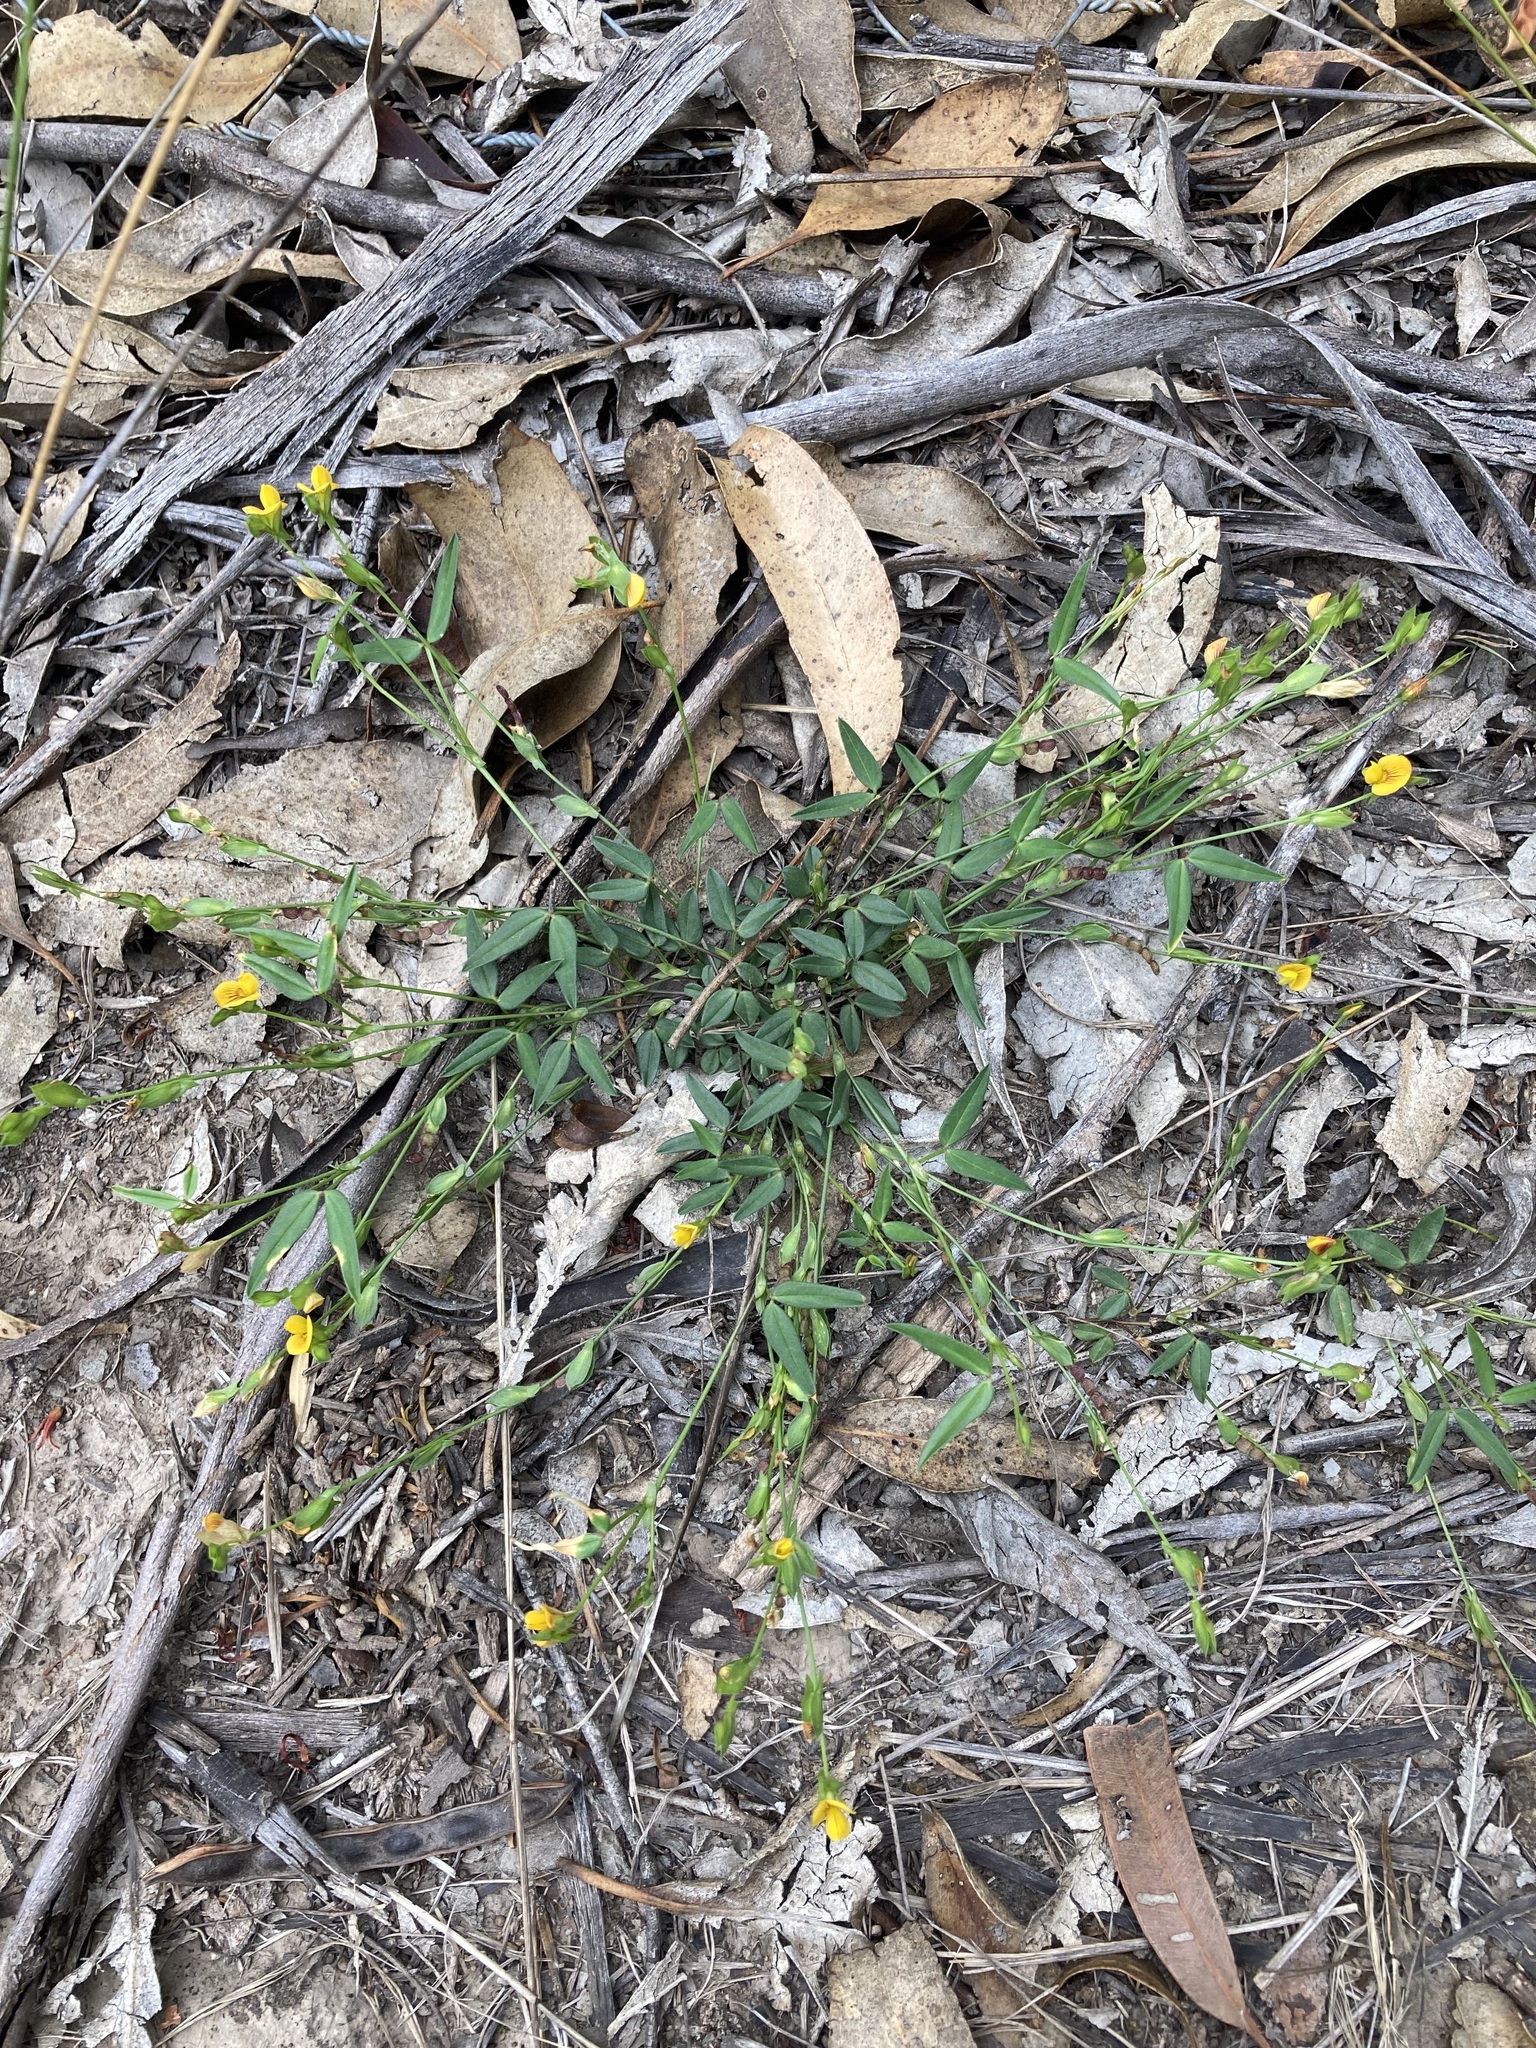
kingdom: Plantae
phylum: Tracheophyta
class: Magnoliopsida
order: Fabales
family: Fabaceae
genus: Zornia
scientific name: Zornia dyctiocarpa
